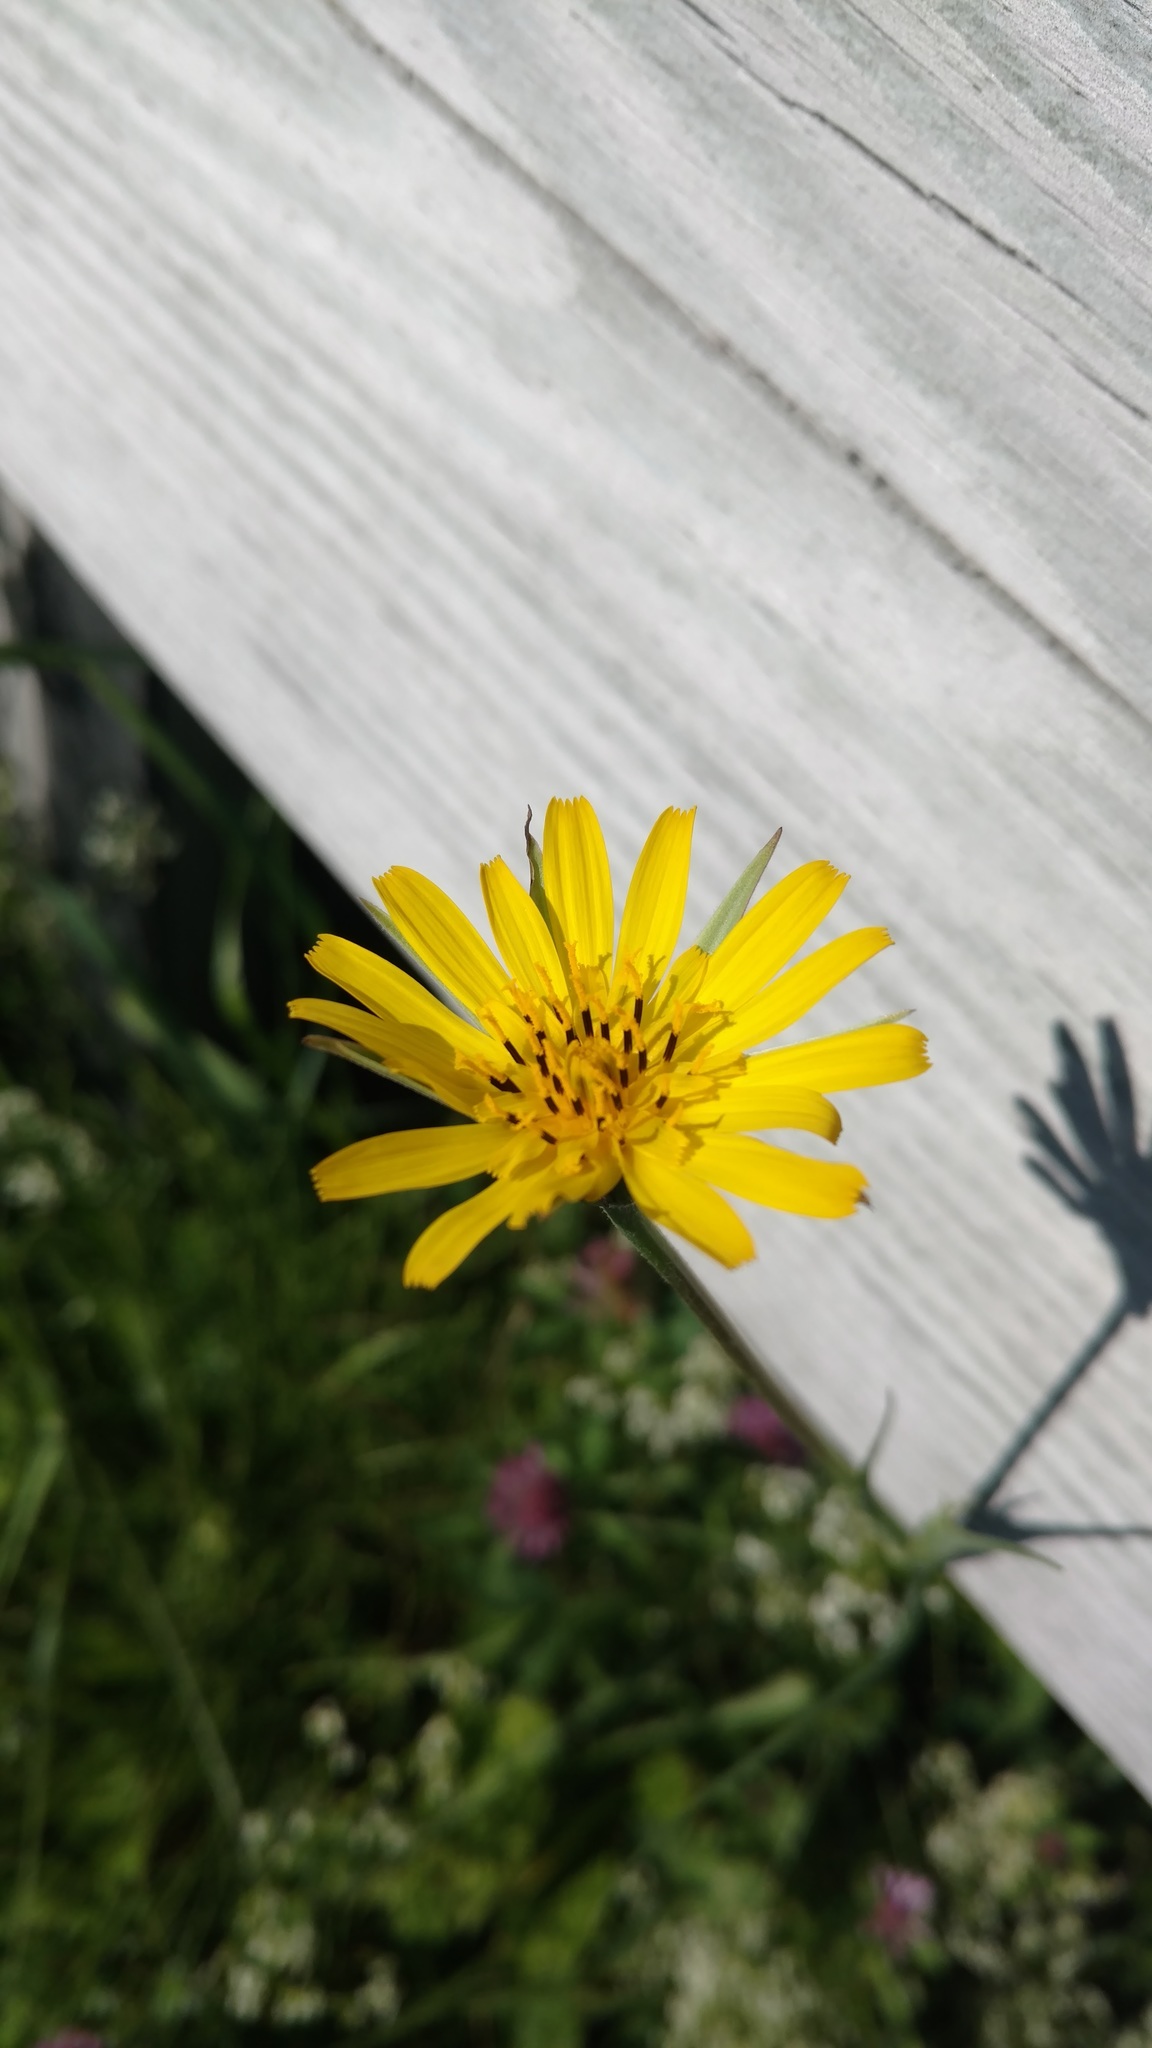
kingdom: Plantae
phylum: Tracheophyta
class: Magnoliopsida
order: Asterales
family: Asteraceae
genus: Tragopogon
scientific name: Tragopogon pratensis
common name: Goat's-beard
